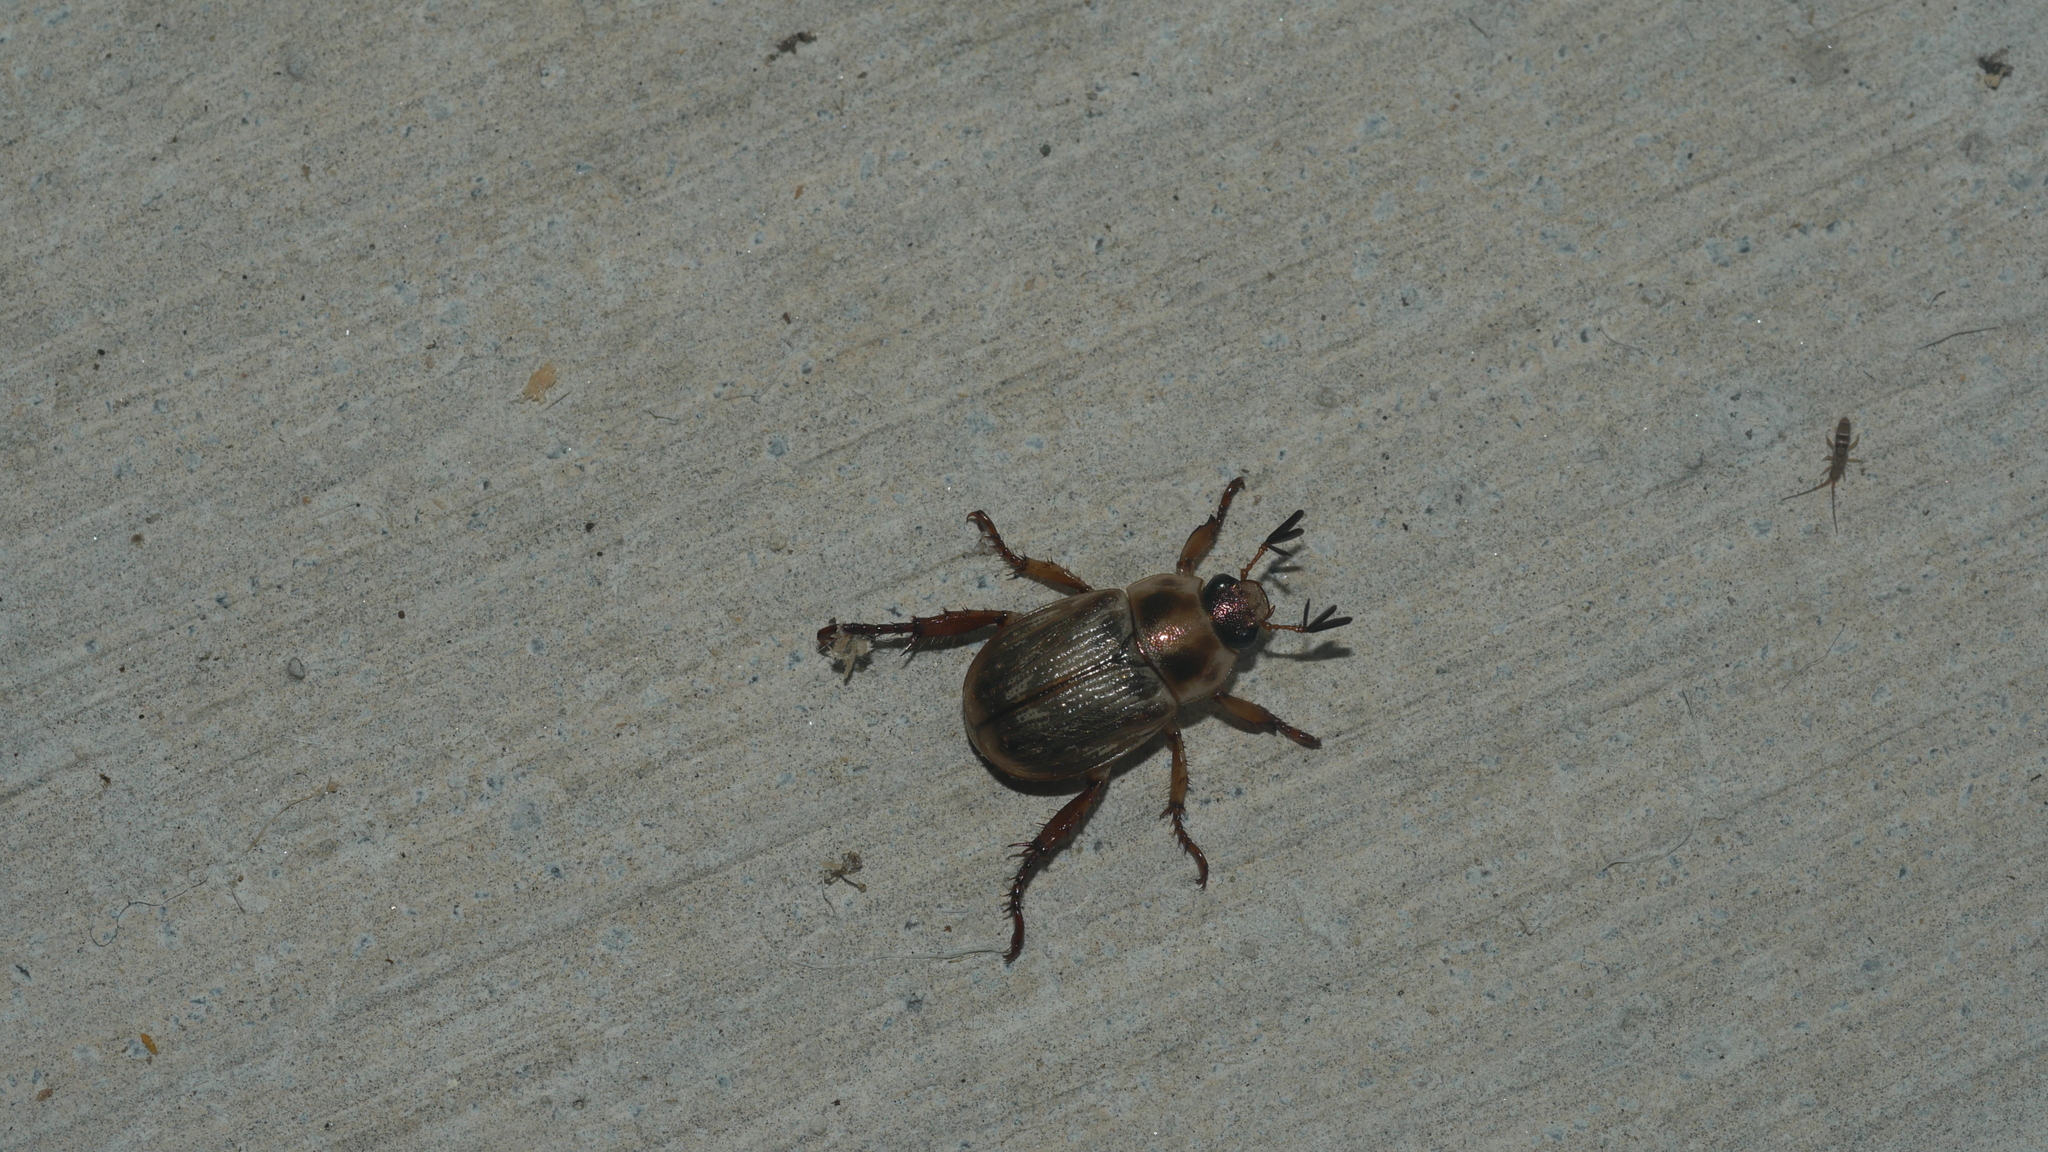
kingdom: Animalia
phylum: Arthropoda
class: Insecta
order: Coleoptera
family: Scarabaeidae
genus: Exomala
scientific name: Exomala orientalis
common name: Oriental beetle
